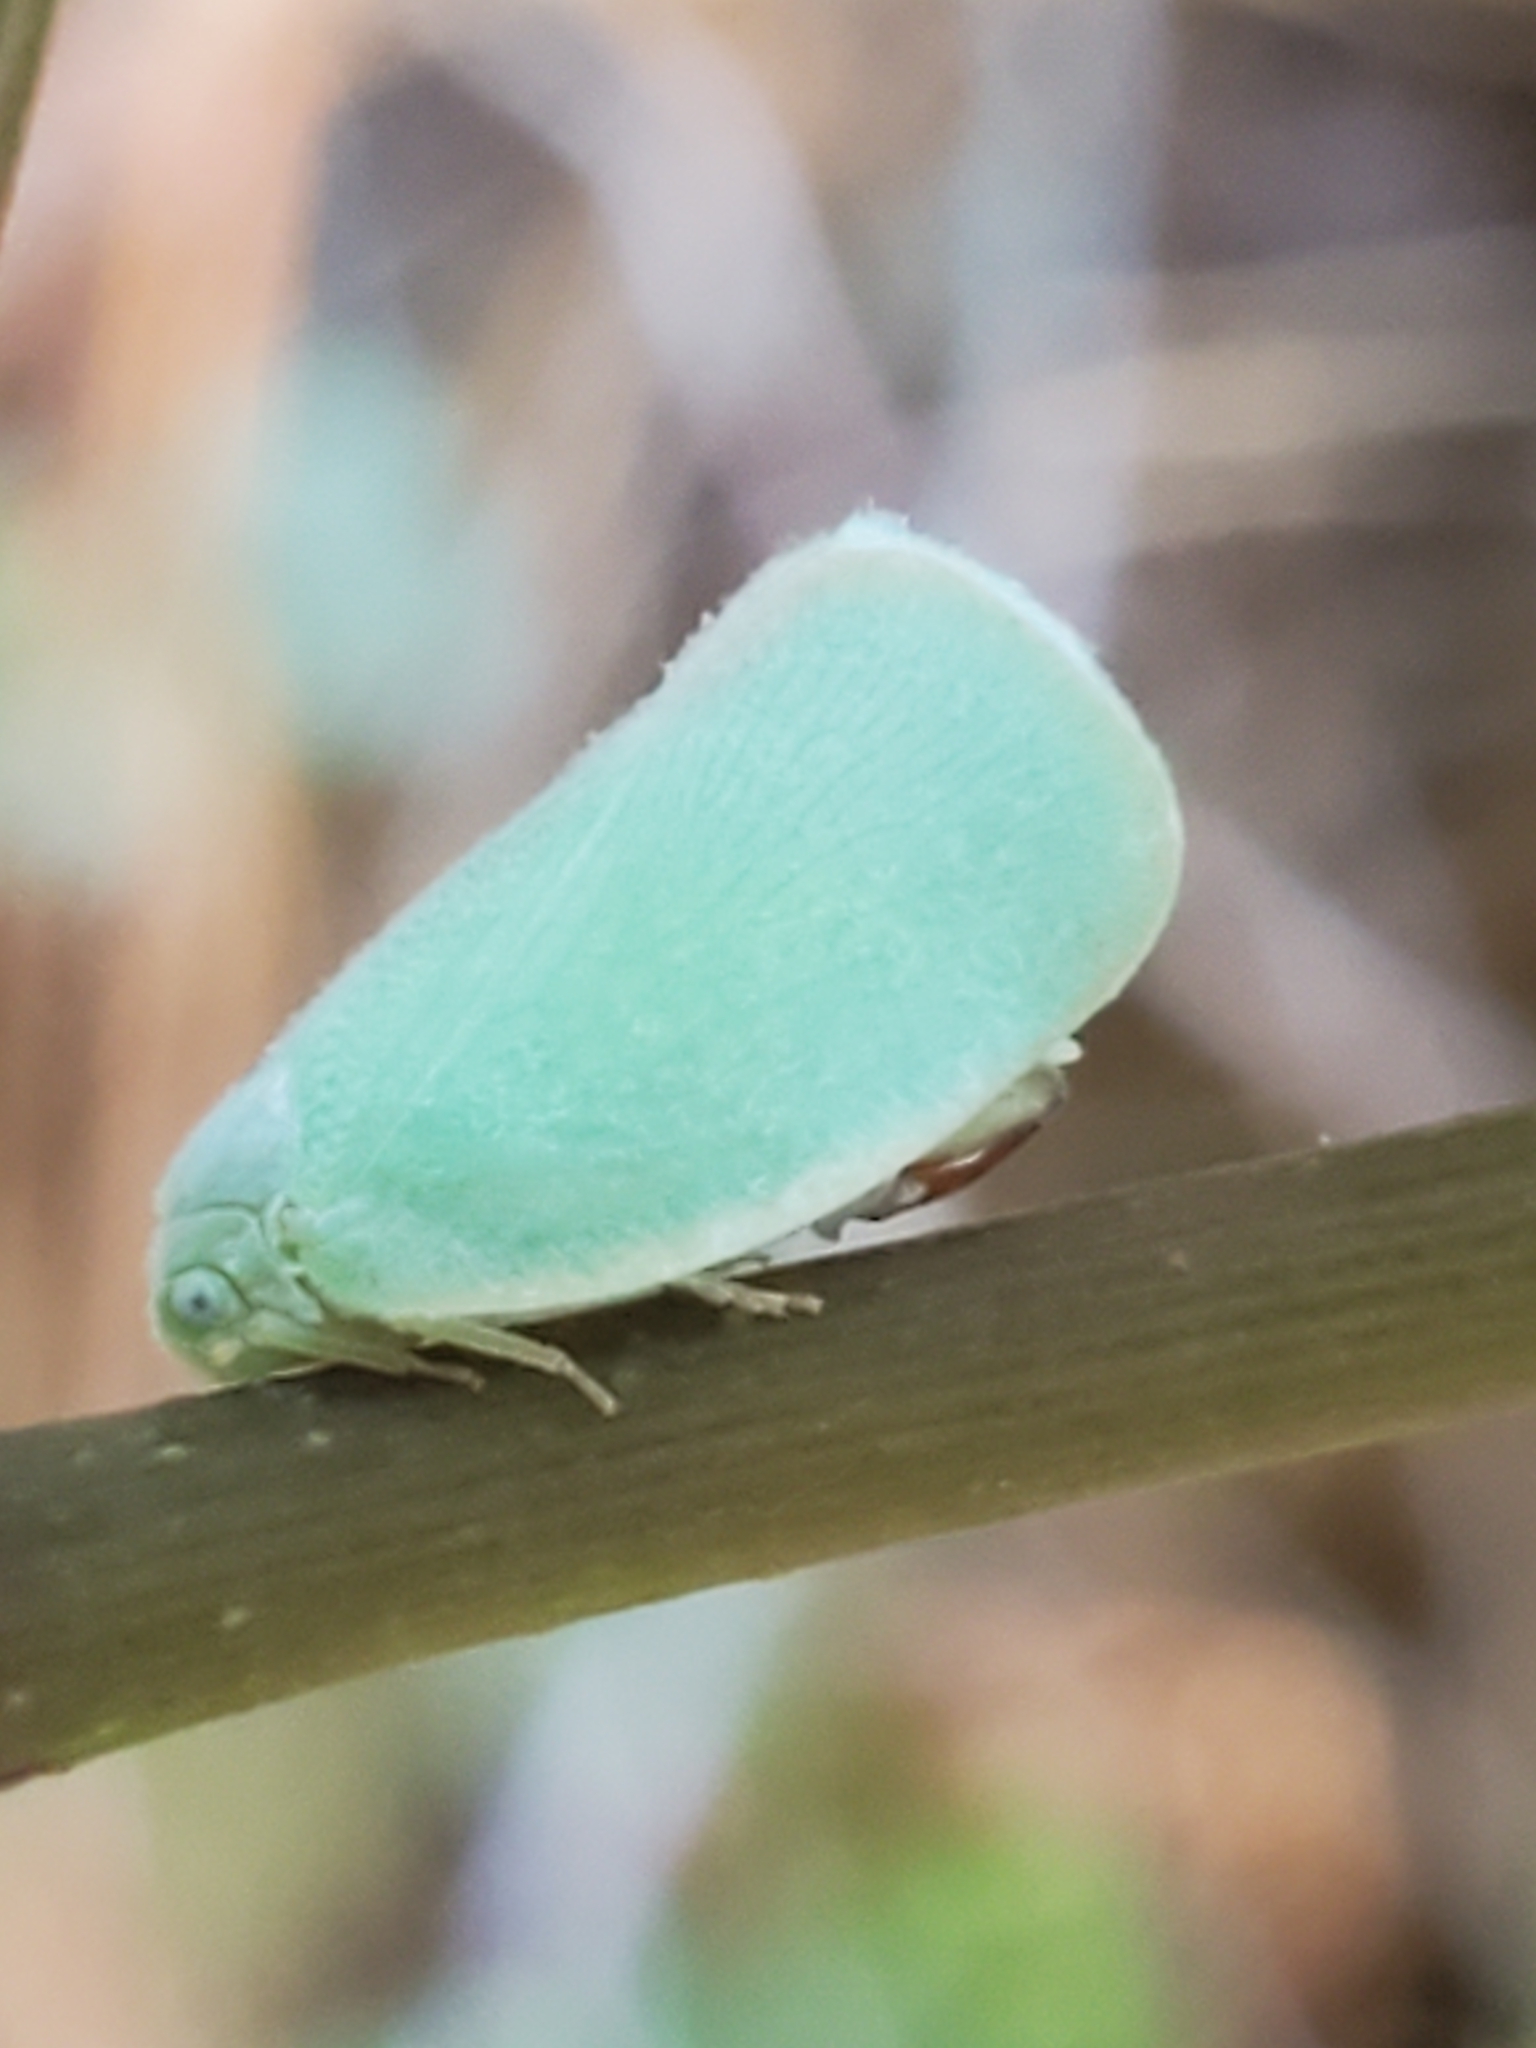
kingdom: Animalia
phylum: Arthropoda
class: Insecta
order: Hemiptera
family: Flatidae
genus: Ormenoides
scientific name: Ormenoides venusta
